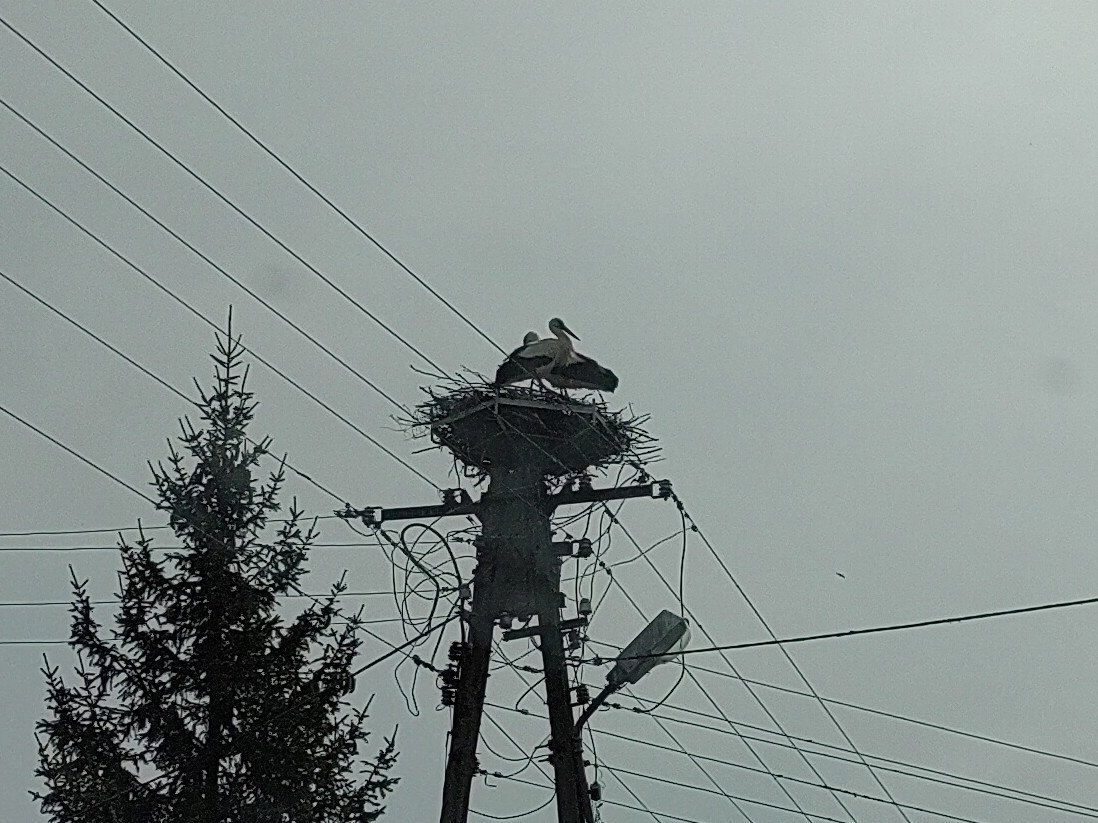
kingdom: Animalia
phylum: Chordata
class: Aves
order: Ciconiiformes
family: Ciconiidae
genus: Ciconia
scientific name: Ciconia ciconia
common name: White stork
